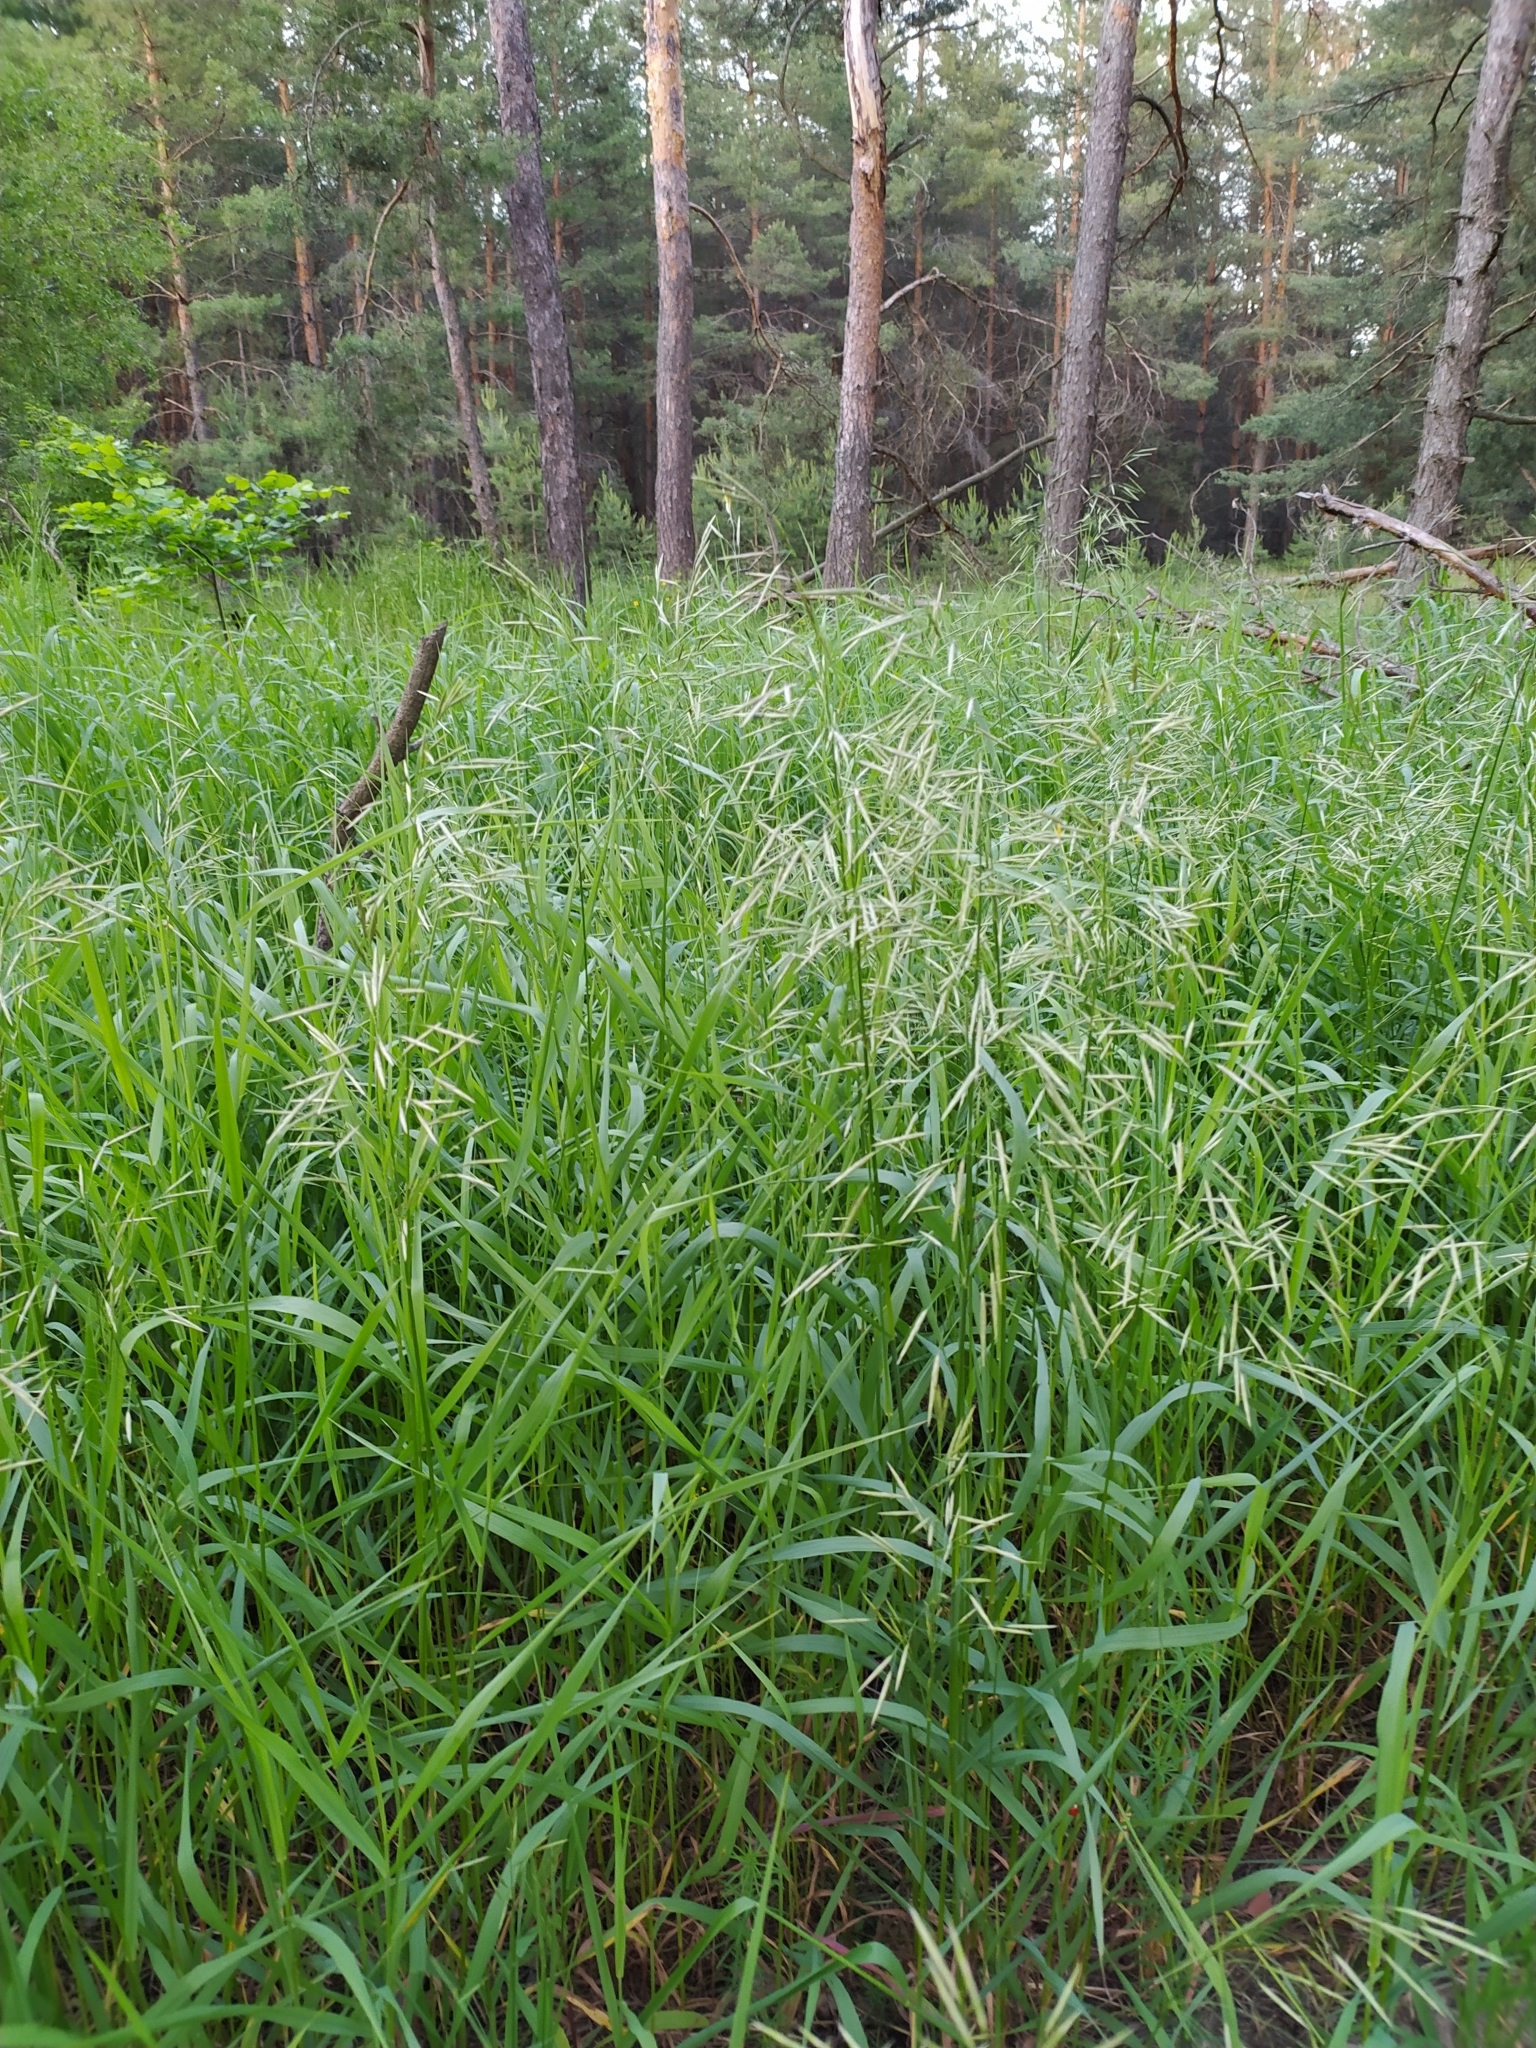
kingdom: Plantae
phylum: Tracheophyta
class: Liliopsida
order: Poales
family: Poaceae
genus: Bromus
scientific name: Bromus inermis
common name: Smooth brome
